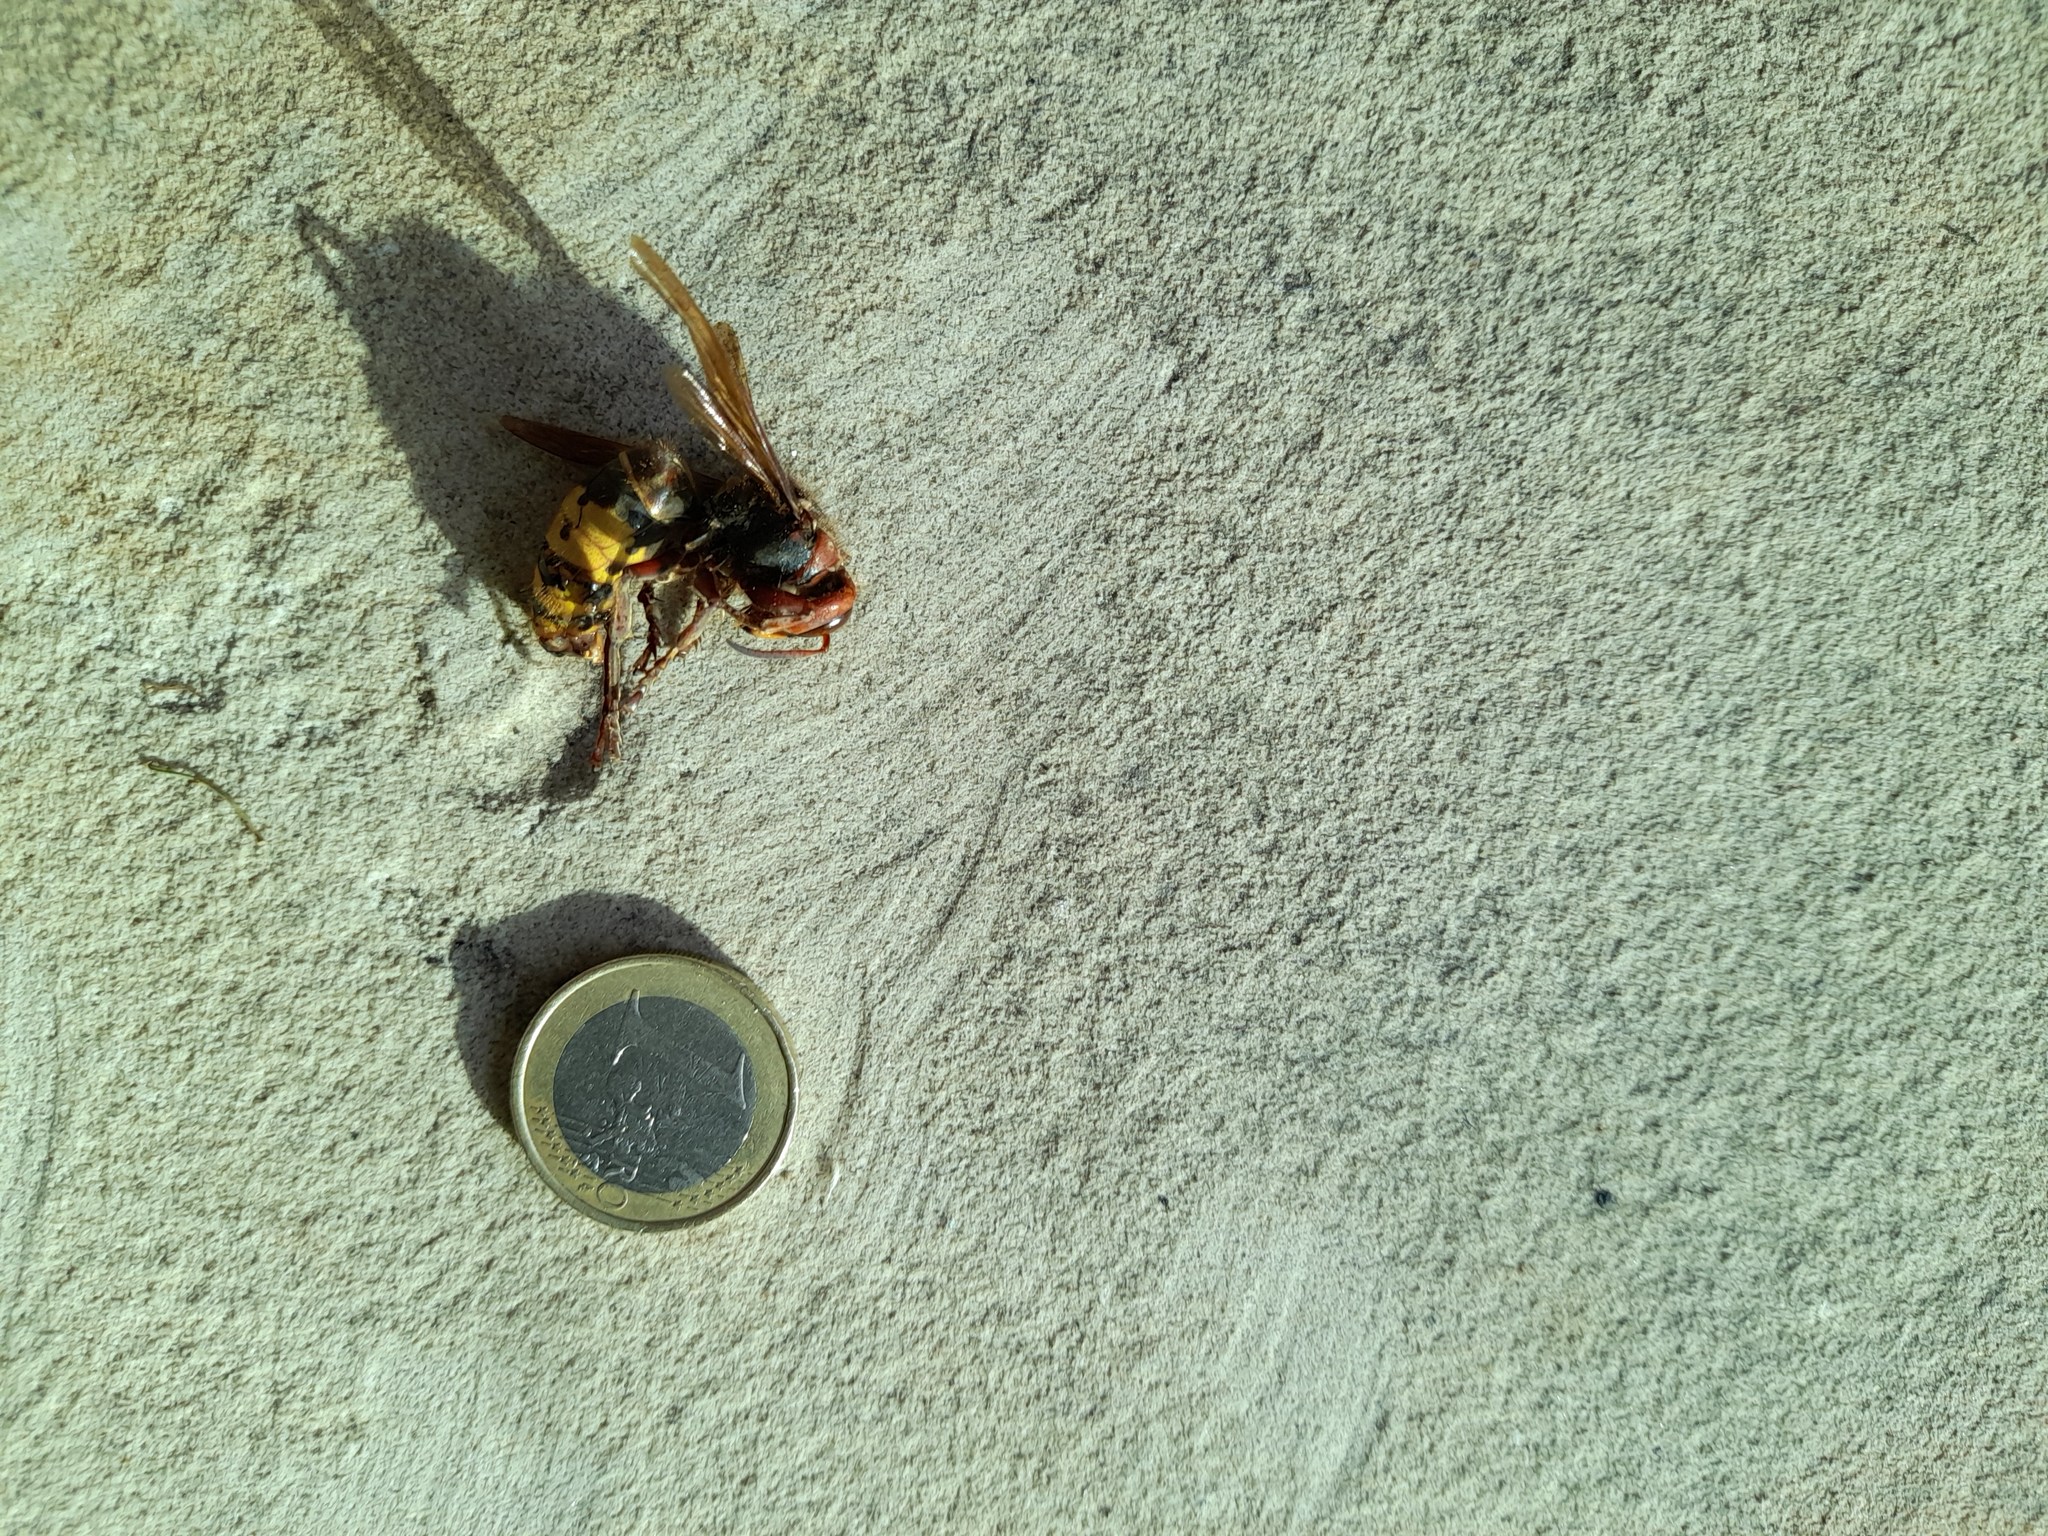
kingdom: Animalia
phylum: Arthropoda
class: Insecta
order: Hymenoptera
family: Vespidae
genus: Vespa
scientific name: Vespa crabro
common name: Hornet
